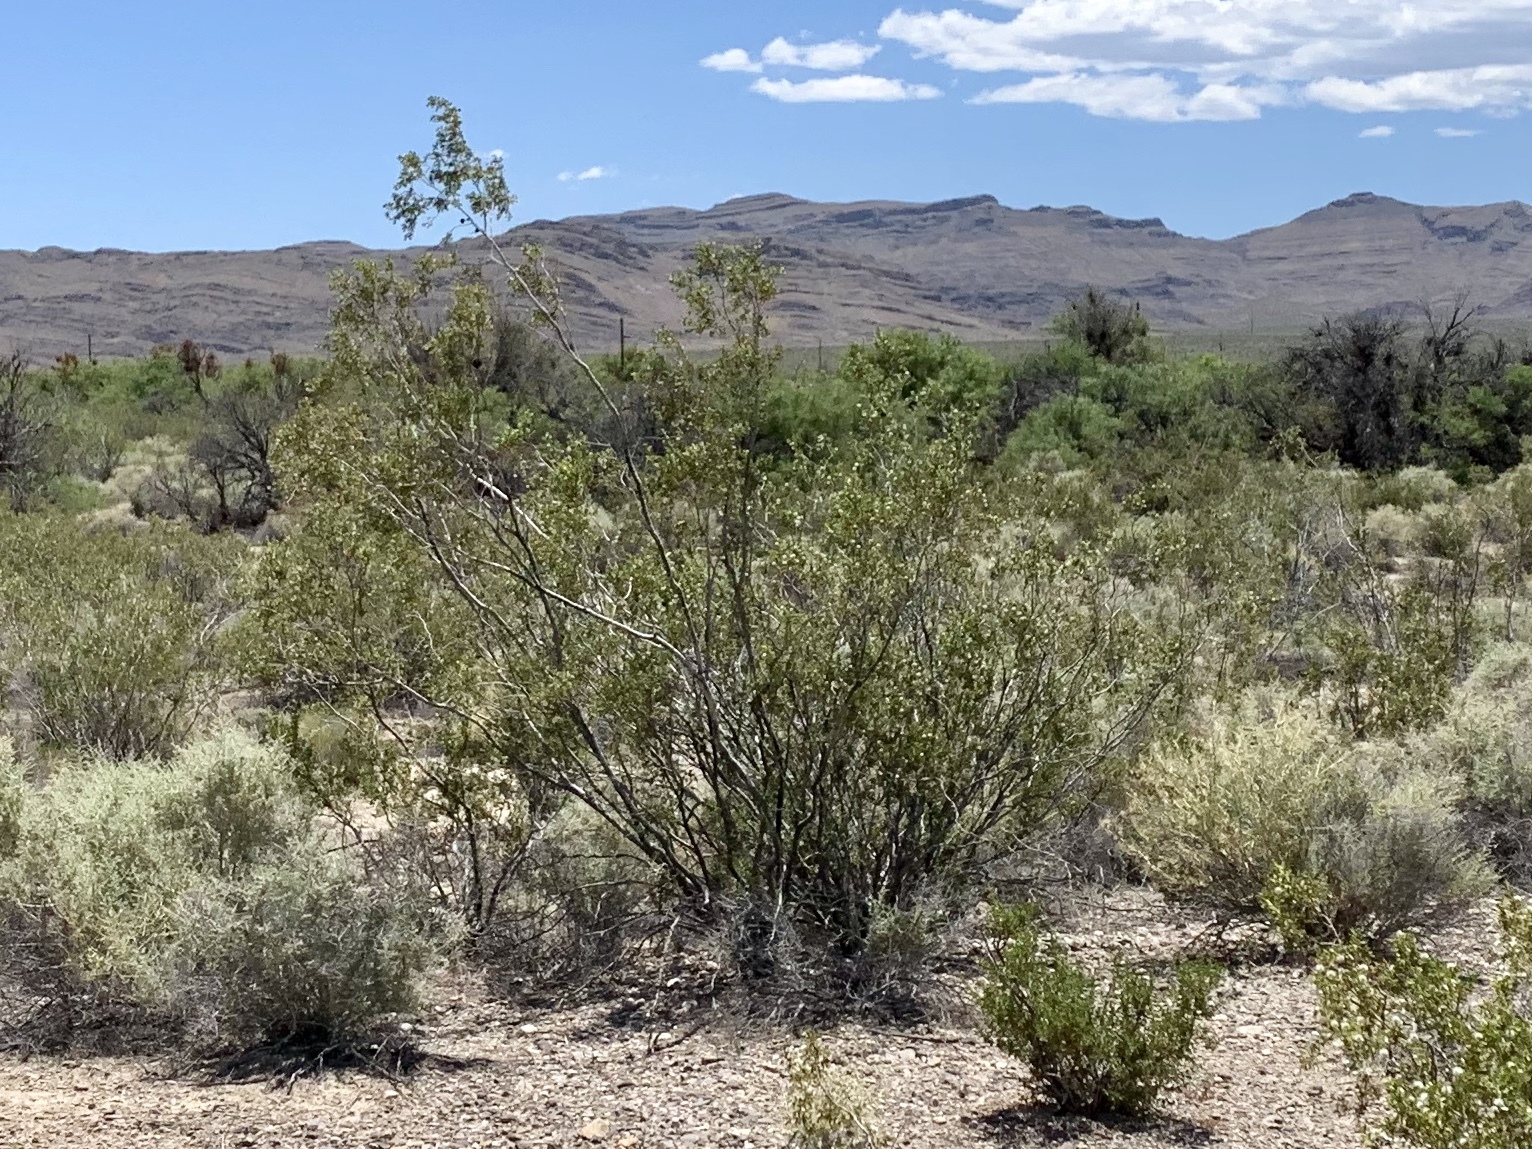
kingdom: Plantae
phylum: Tracheophyta
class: Magnoliopsida
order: Zygophyllales
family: Zygophyllaceae
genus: Larrea
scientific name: Larrea tridentata
